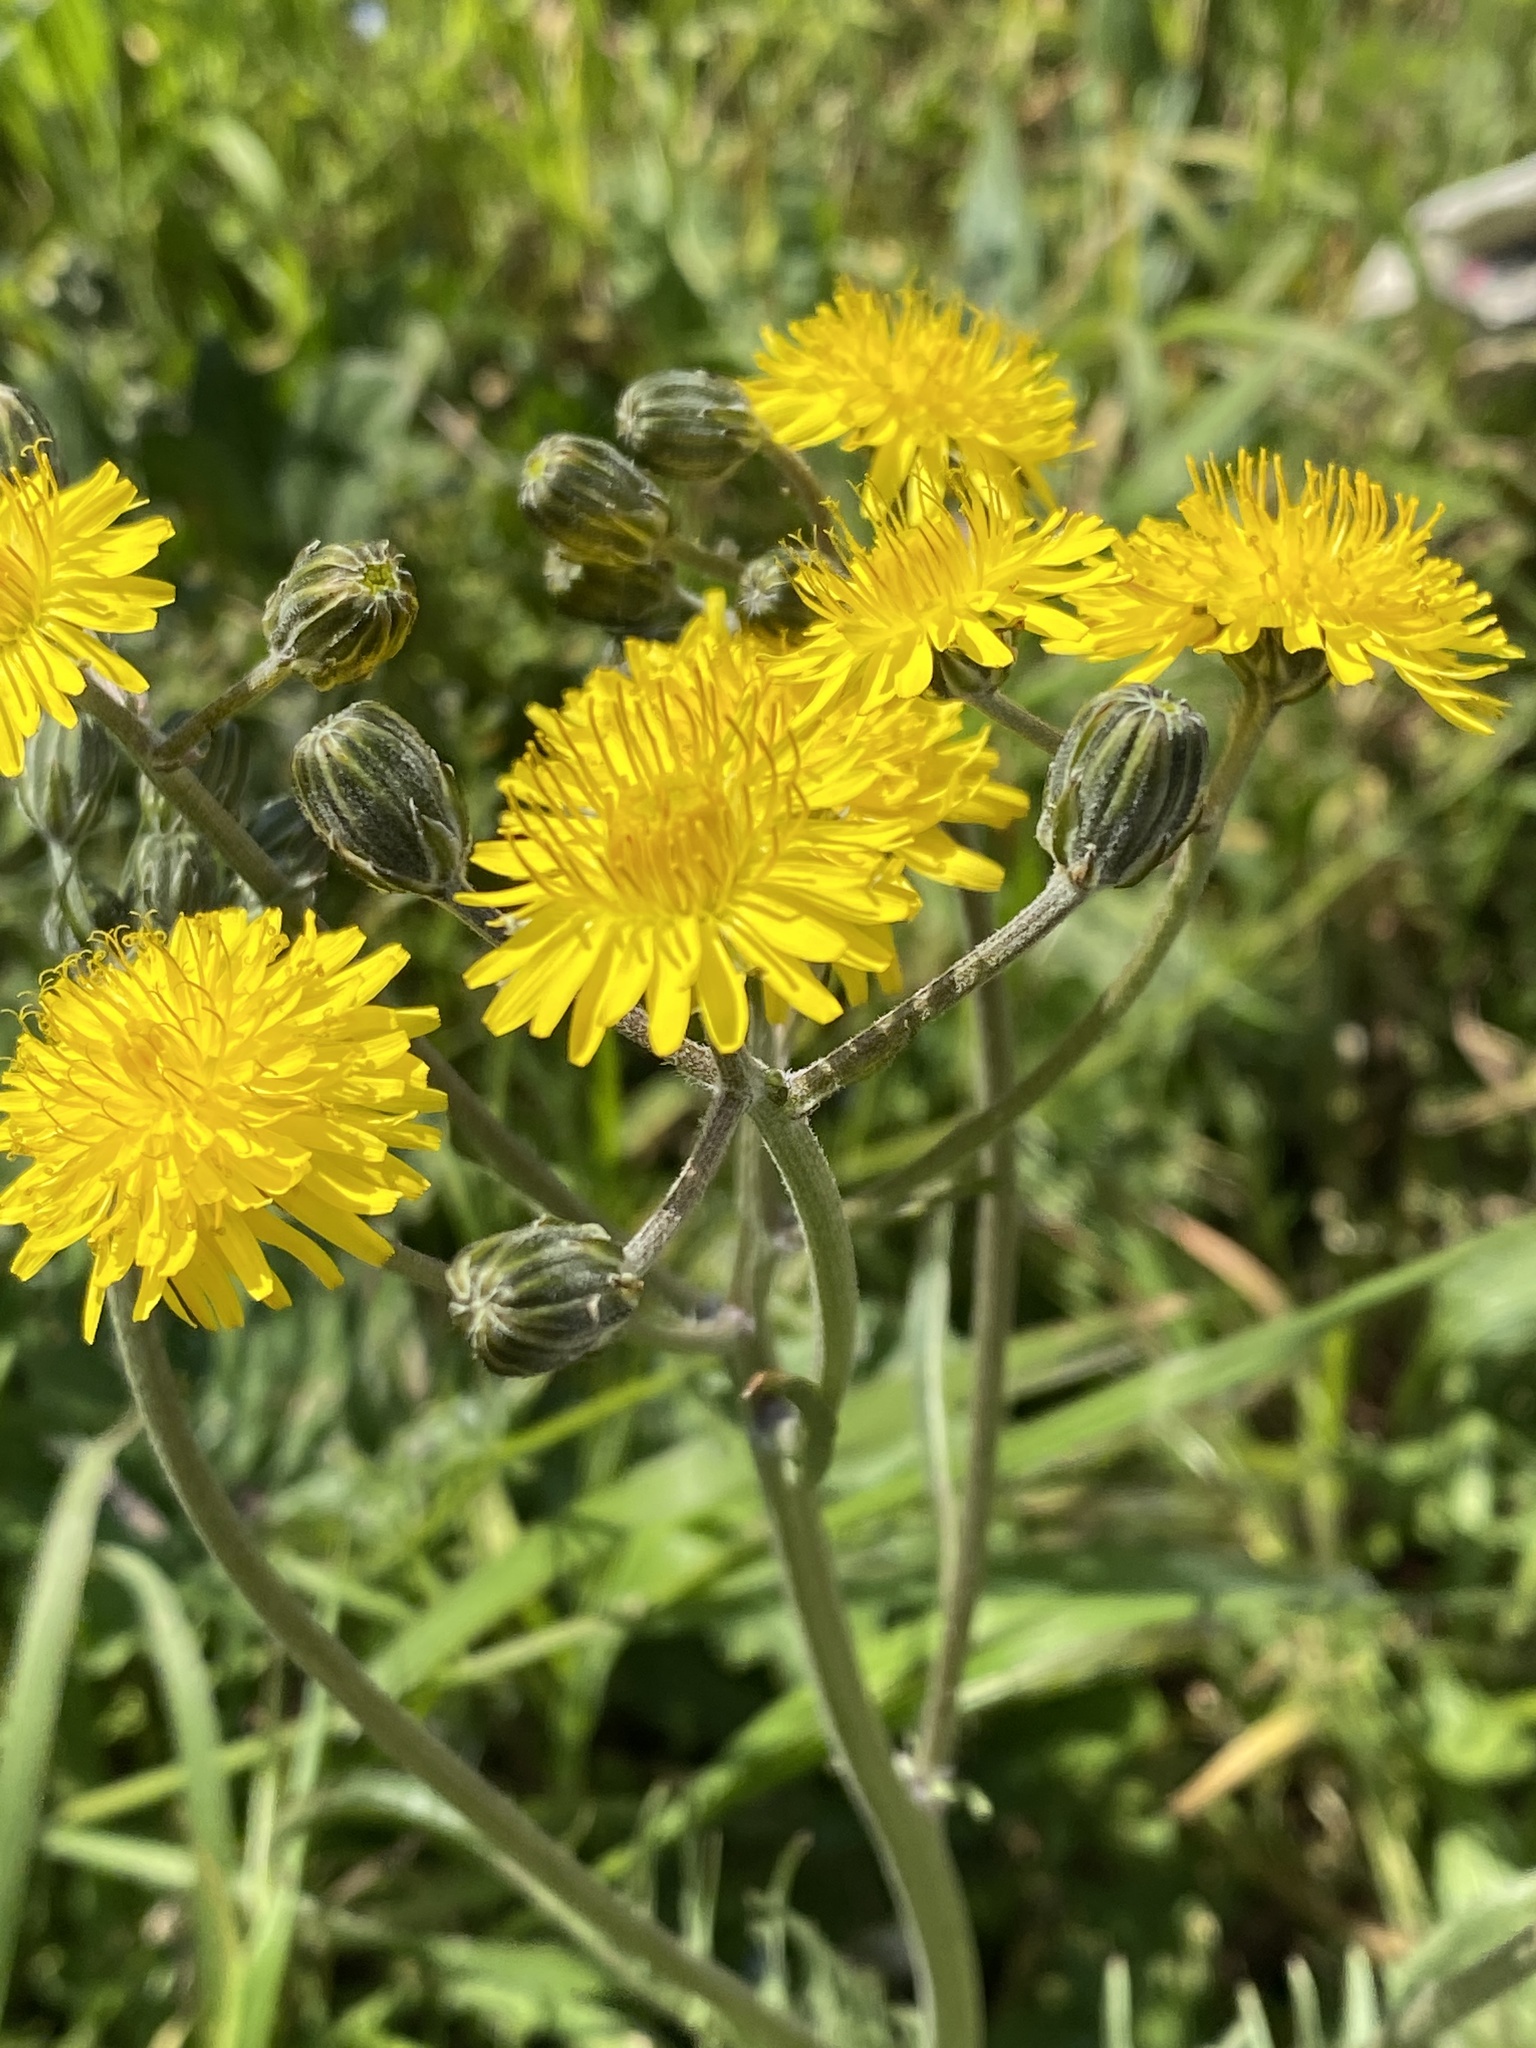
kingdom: Plantae
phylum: Tracheophyta
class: Magnoliopsida
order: Asterales
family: Asteraceae
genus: Crepis
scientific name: Crepis vesicaria
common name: Beaked hawksbeard
